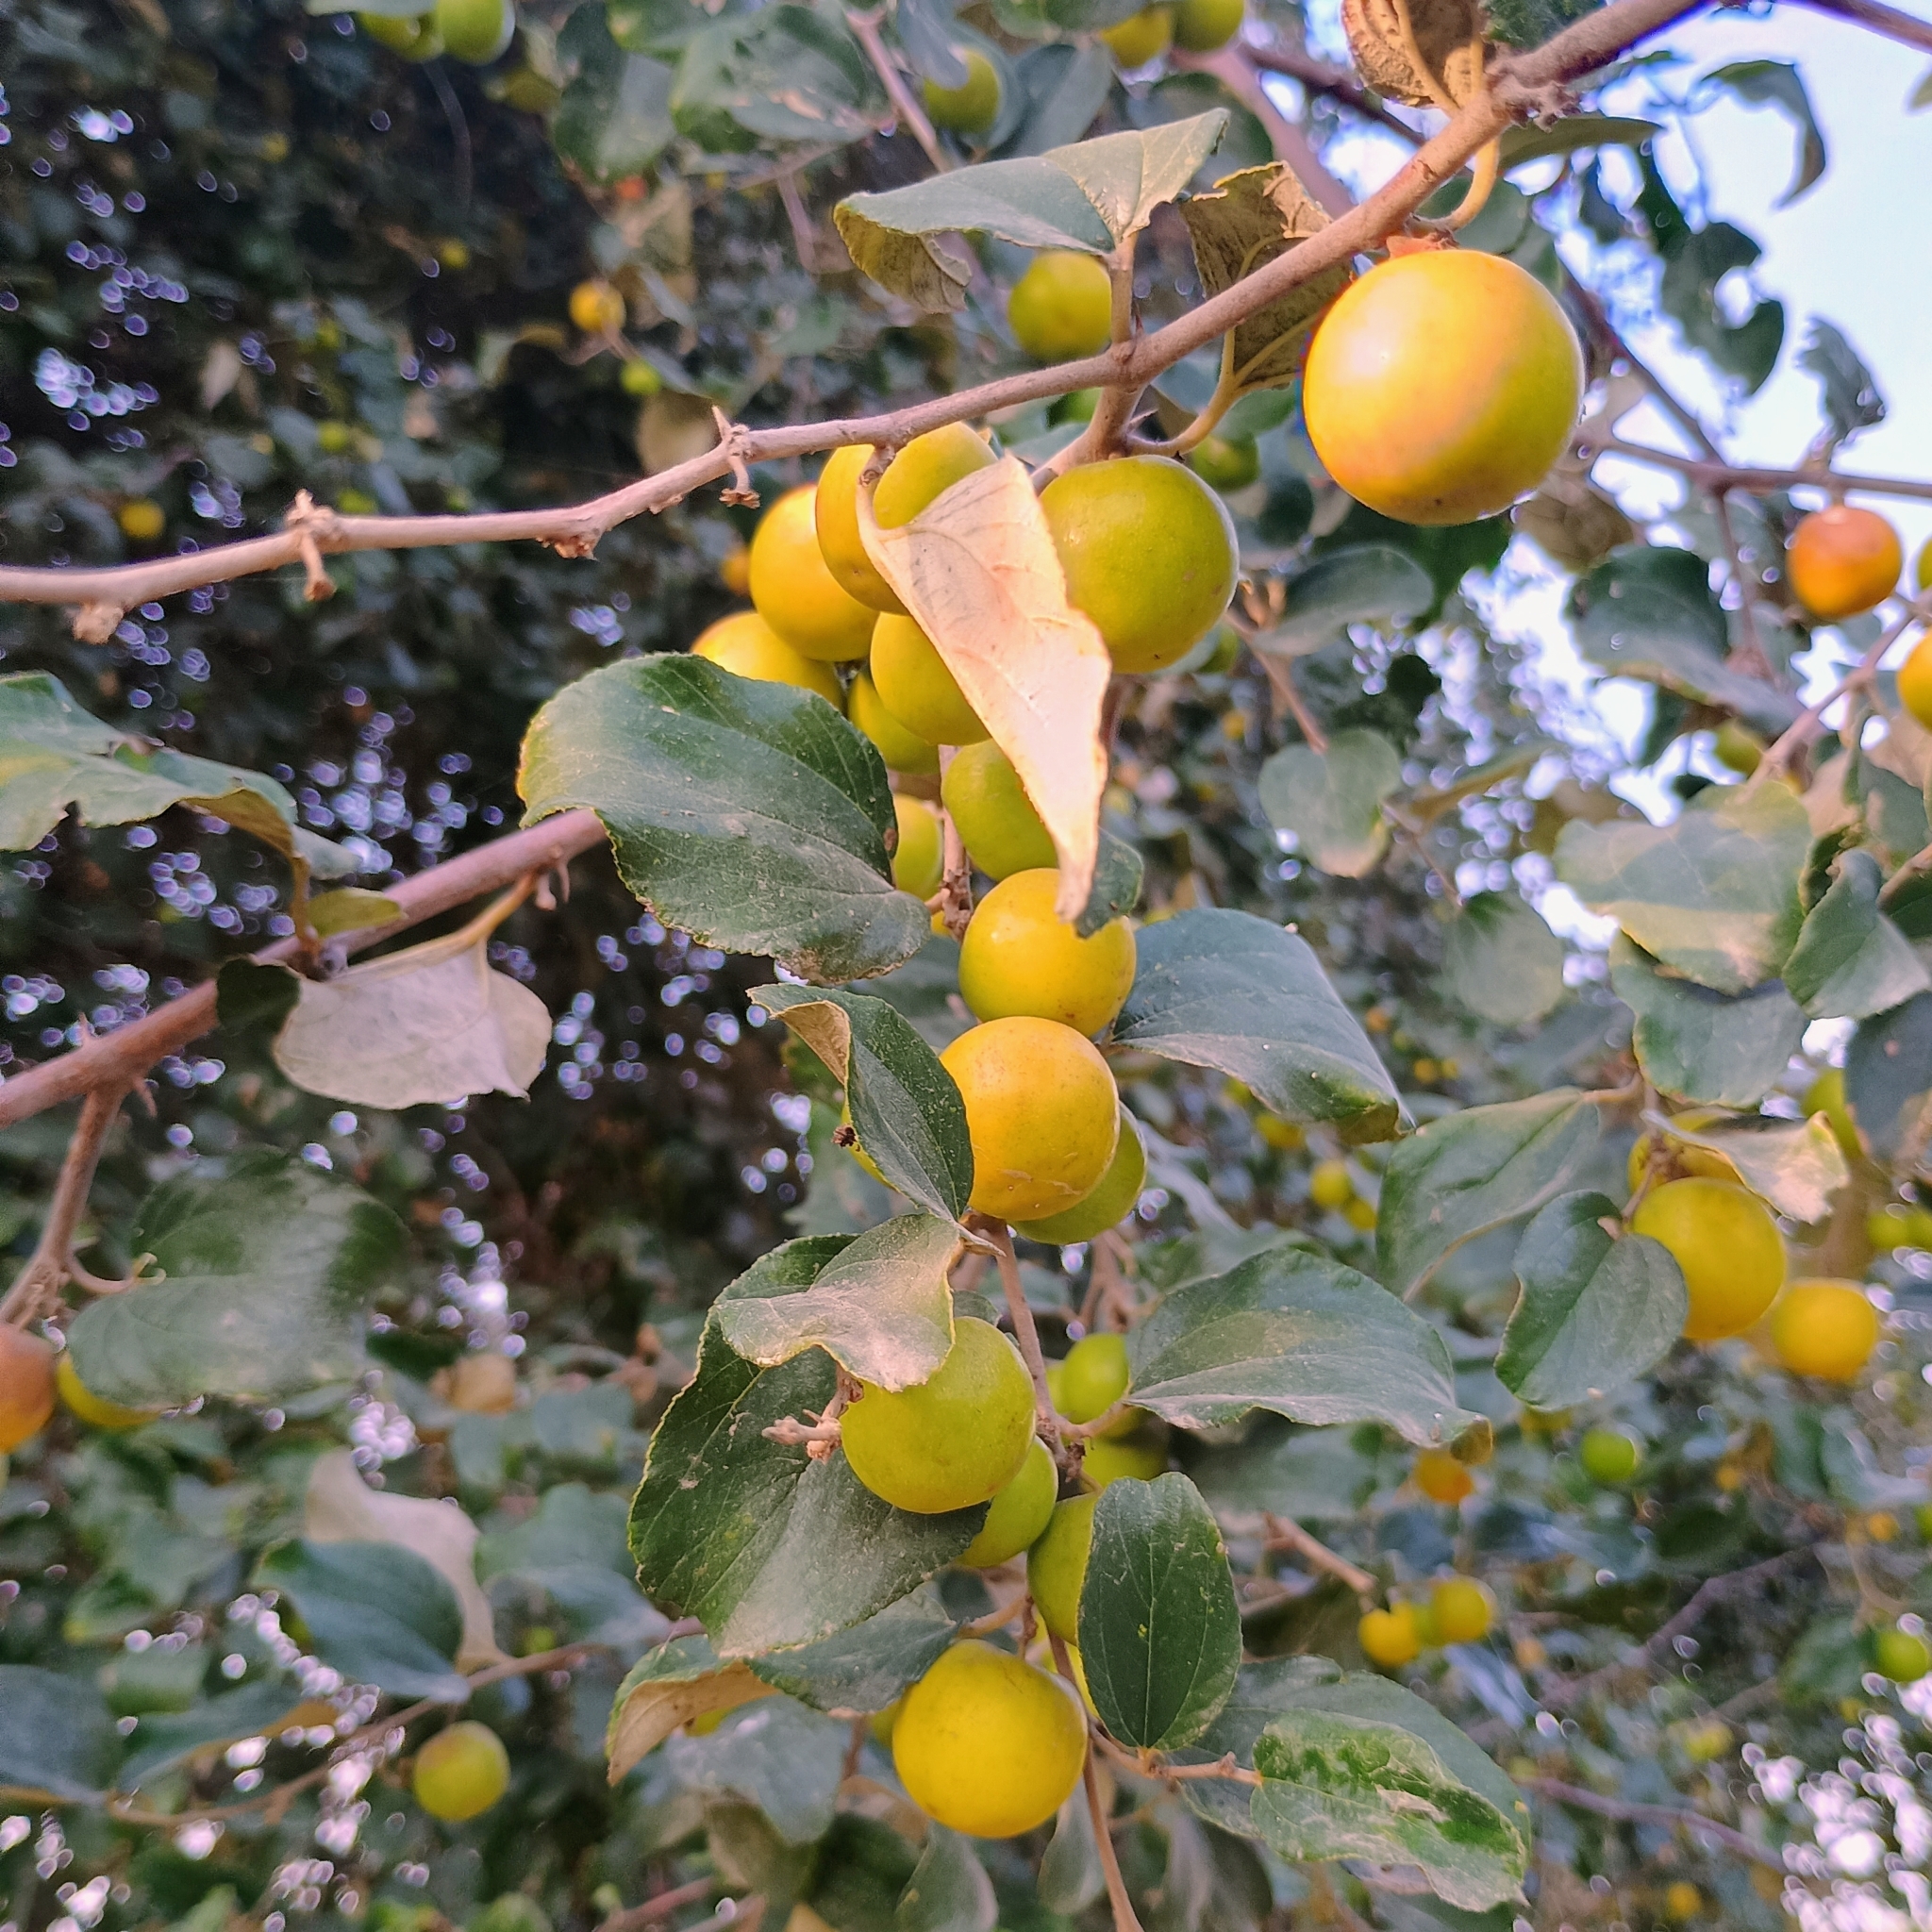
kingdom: Plantae
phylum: Tracheophyta
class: Magnoliopsida
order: Rosales
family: Rhamnaceae
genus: Ziziphus
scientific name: Ziziphus mauritiana
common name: Indian jujube
